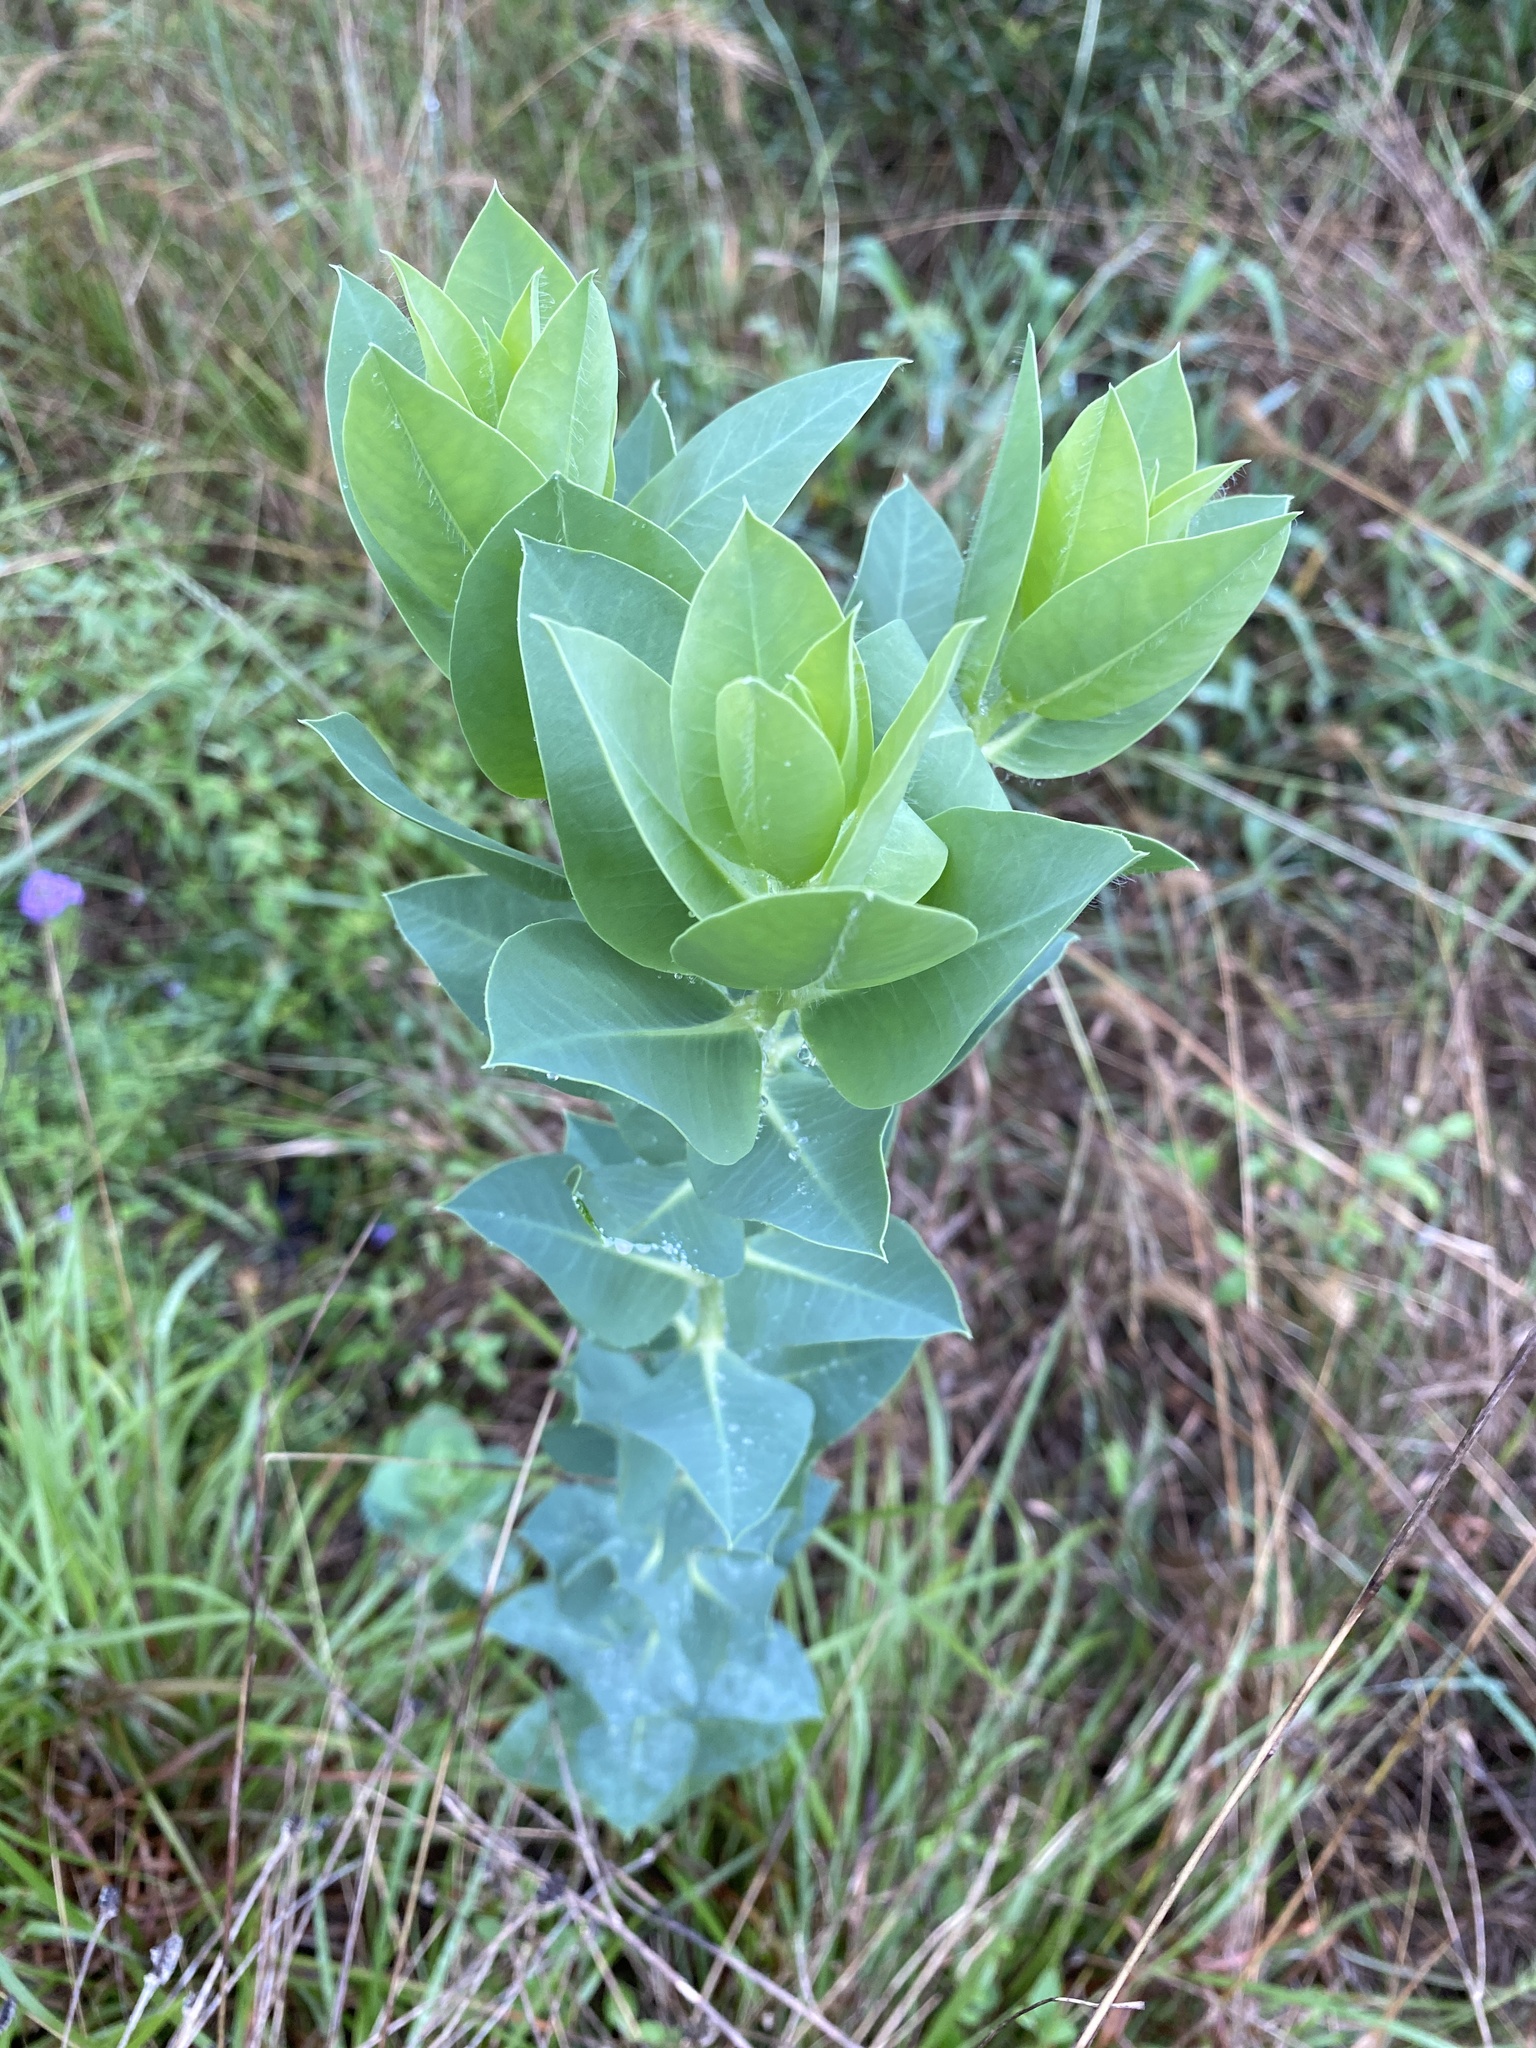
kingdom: Plantae
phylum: Tracheophyta
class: Magnoliopsida
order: Malpighiales
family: Euphorbiaceae
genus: Euphorbia
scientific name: Euphorbia marginata
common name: Ghostweed
